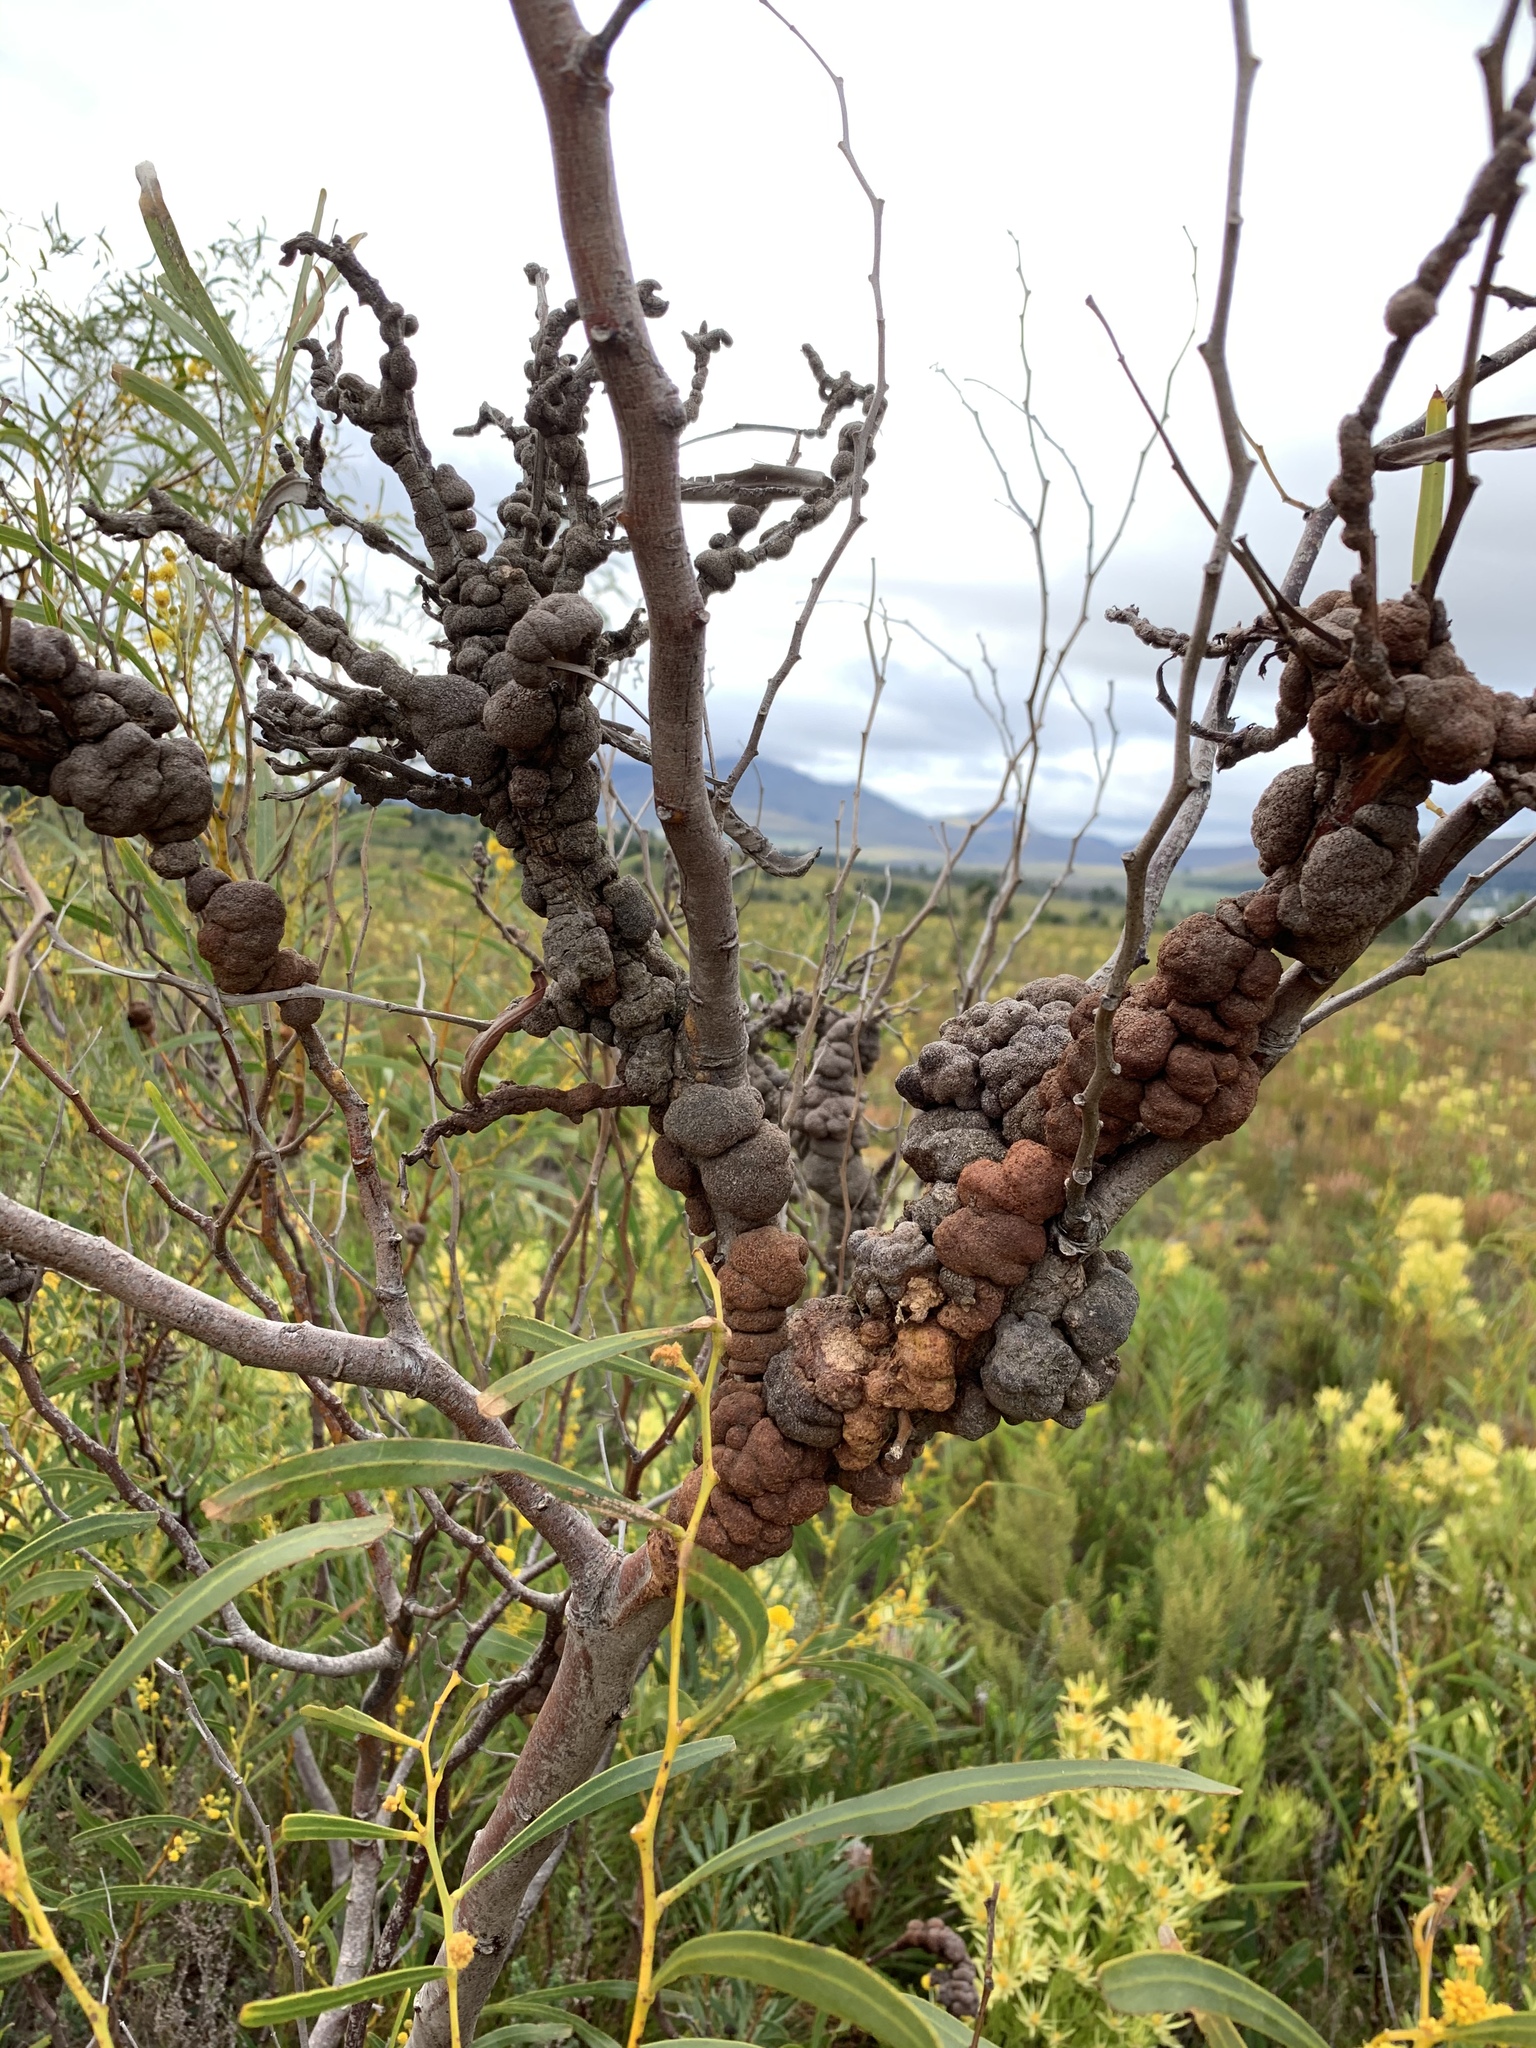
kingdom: Fungi
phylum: Basidiomycota
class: Pucciniomycetes
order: Pucciniales
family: Uromycladiaceae
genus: Uromycladium
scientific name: Uromycladium morrisii
